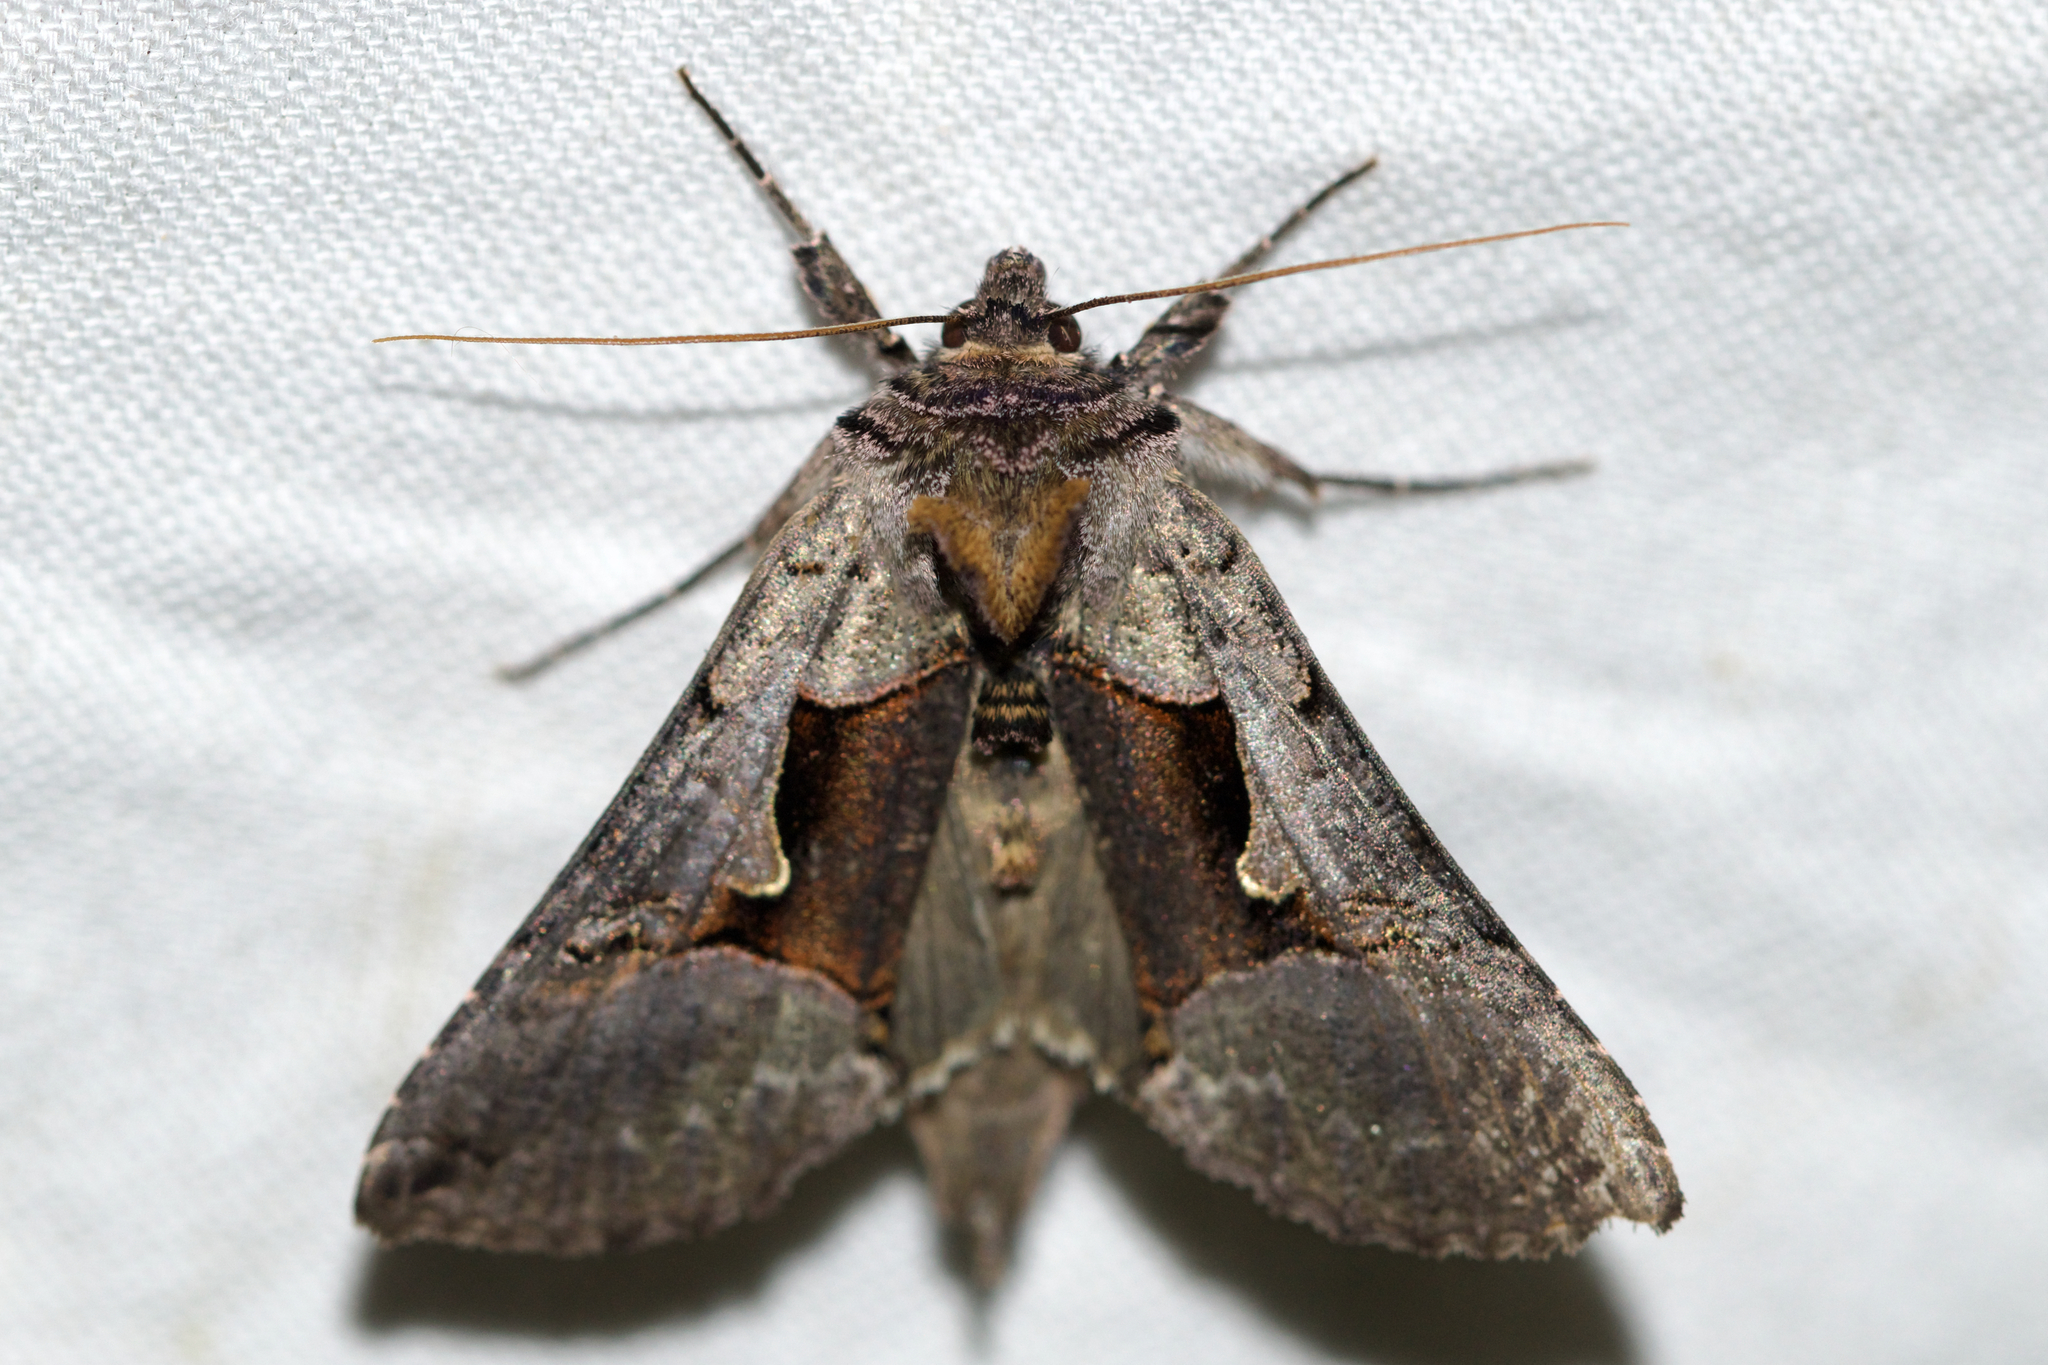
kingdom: Animalia
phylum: Arthropoda
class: Insecta
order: Lepidoptera
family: Noctuidae
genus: Autographa
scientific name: Autographa ampla
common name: Large looper moth
